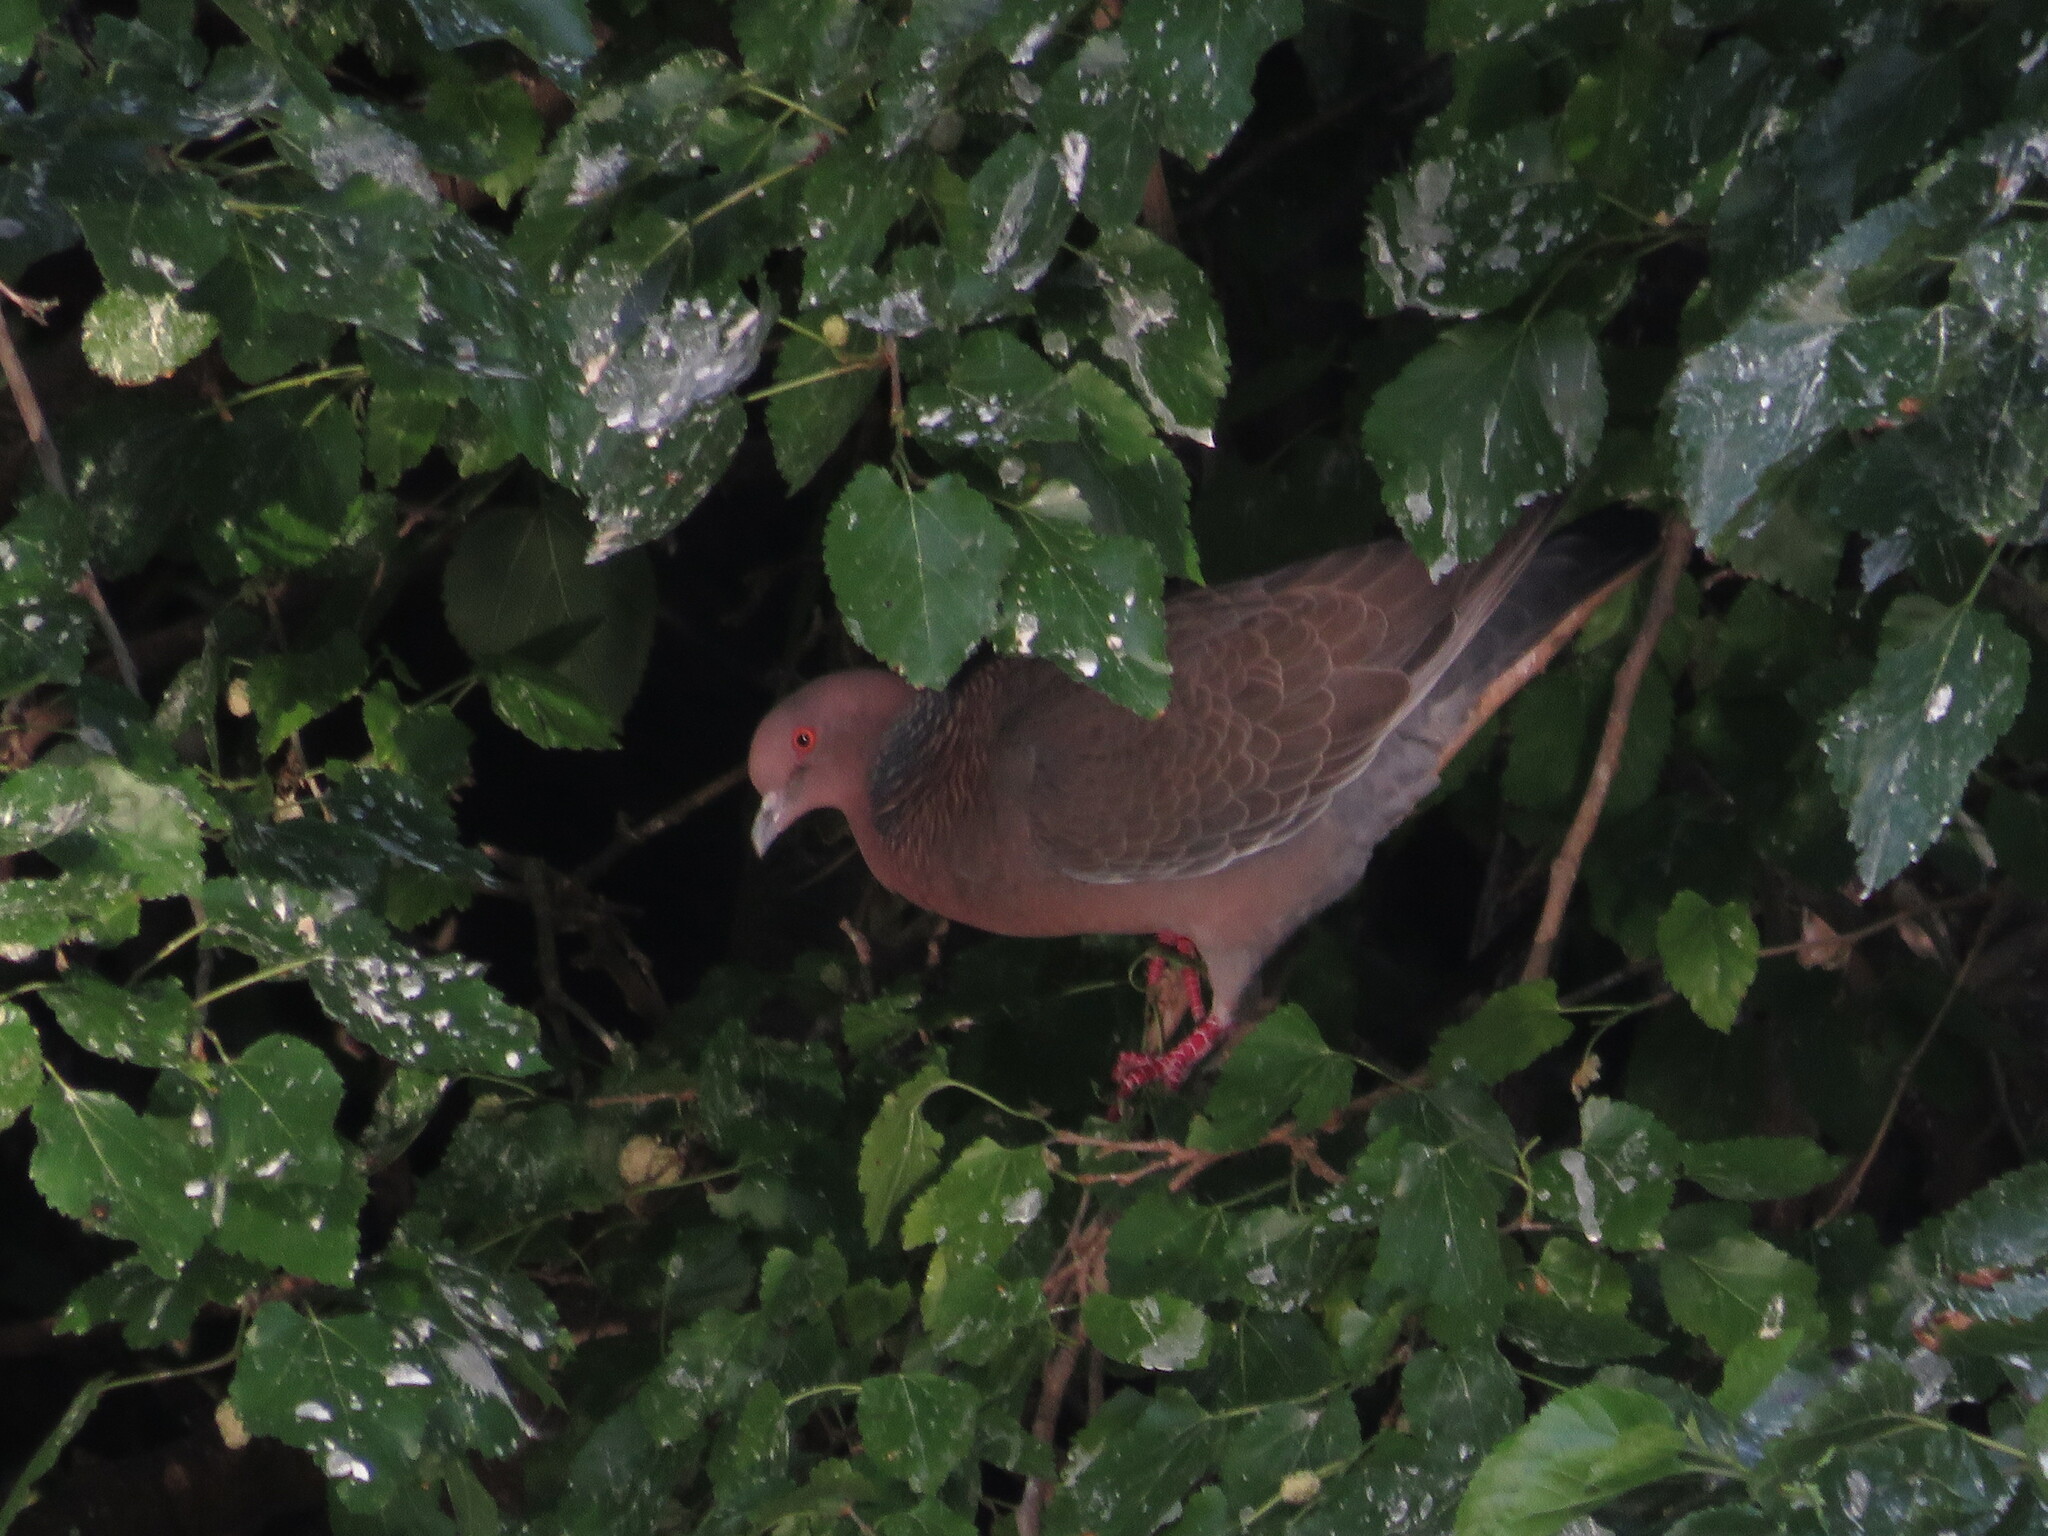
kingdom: Animalia
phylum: Chordata
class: Aves
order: Columbiformes
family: Columbidae
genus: Patagioenas
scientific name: Patagioenas picazuro
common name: Picazuro pigeon
